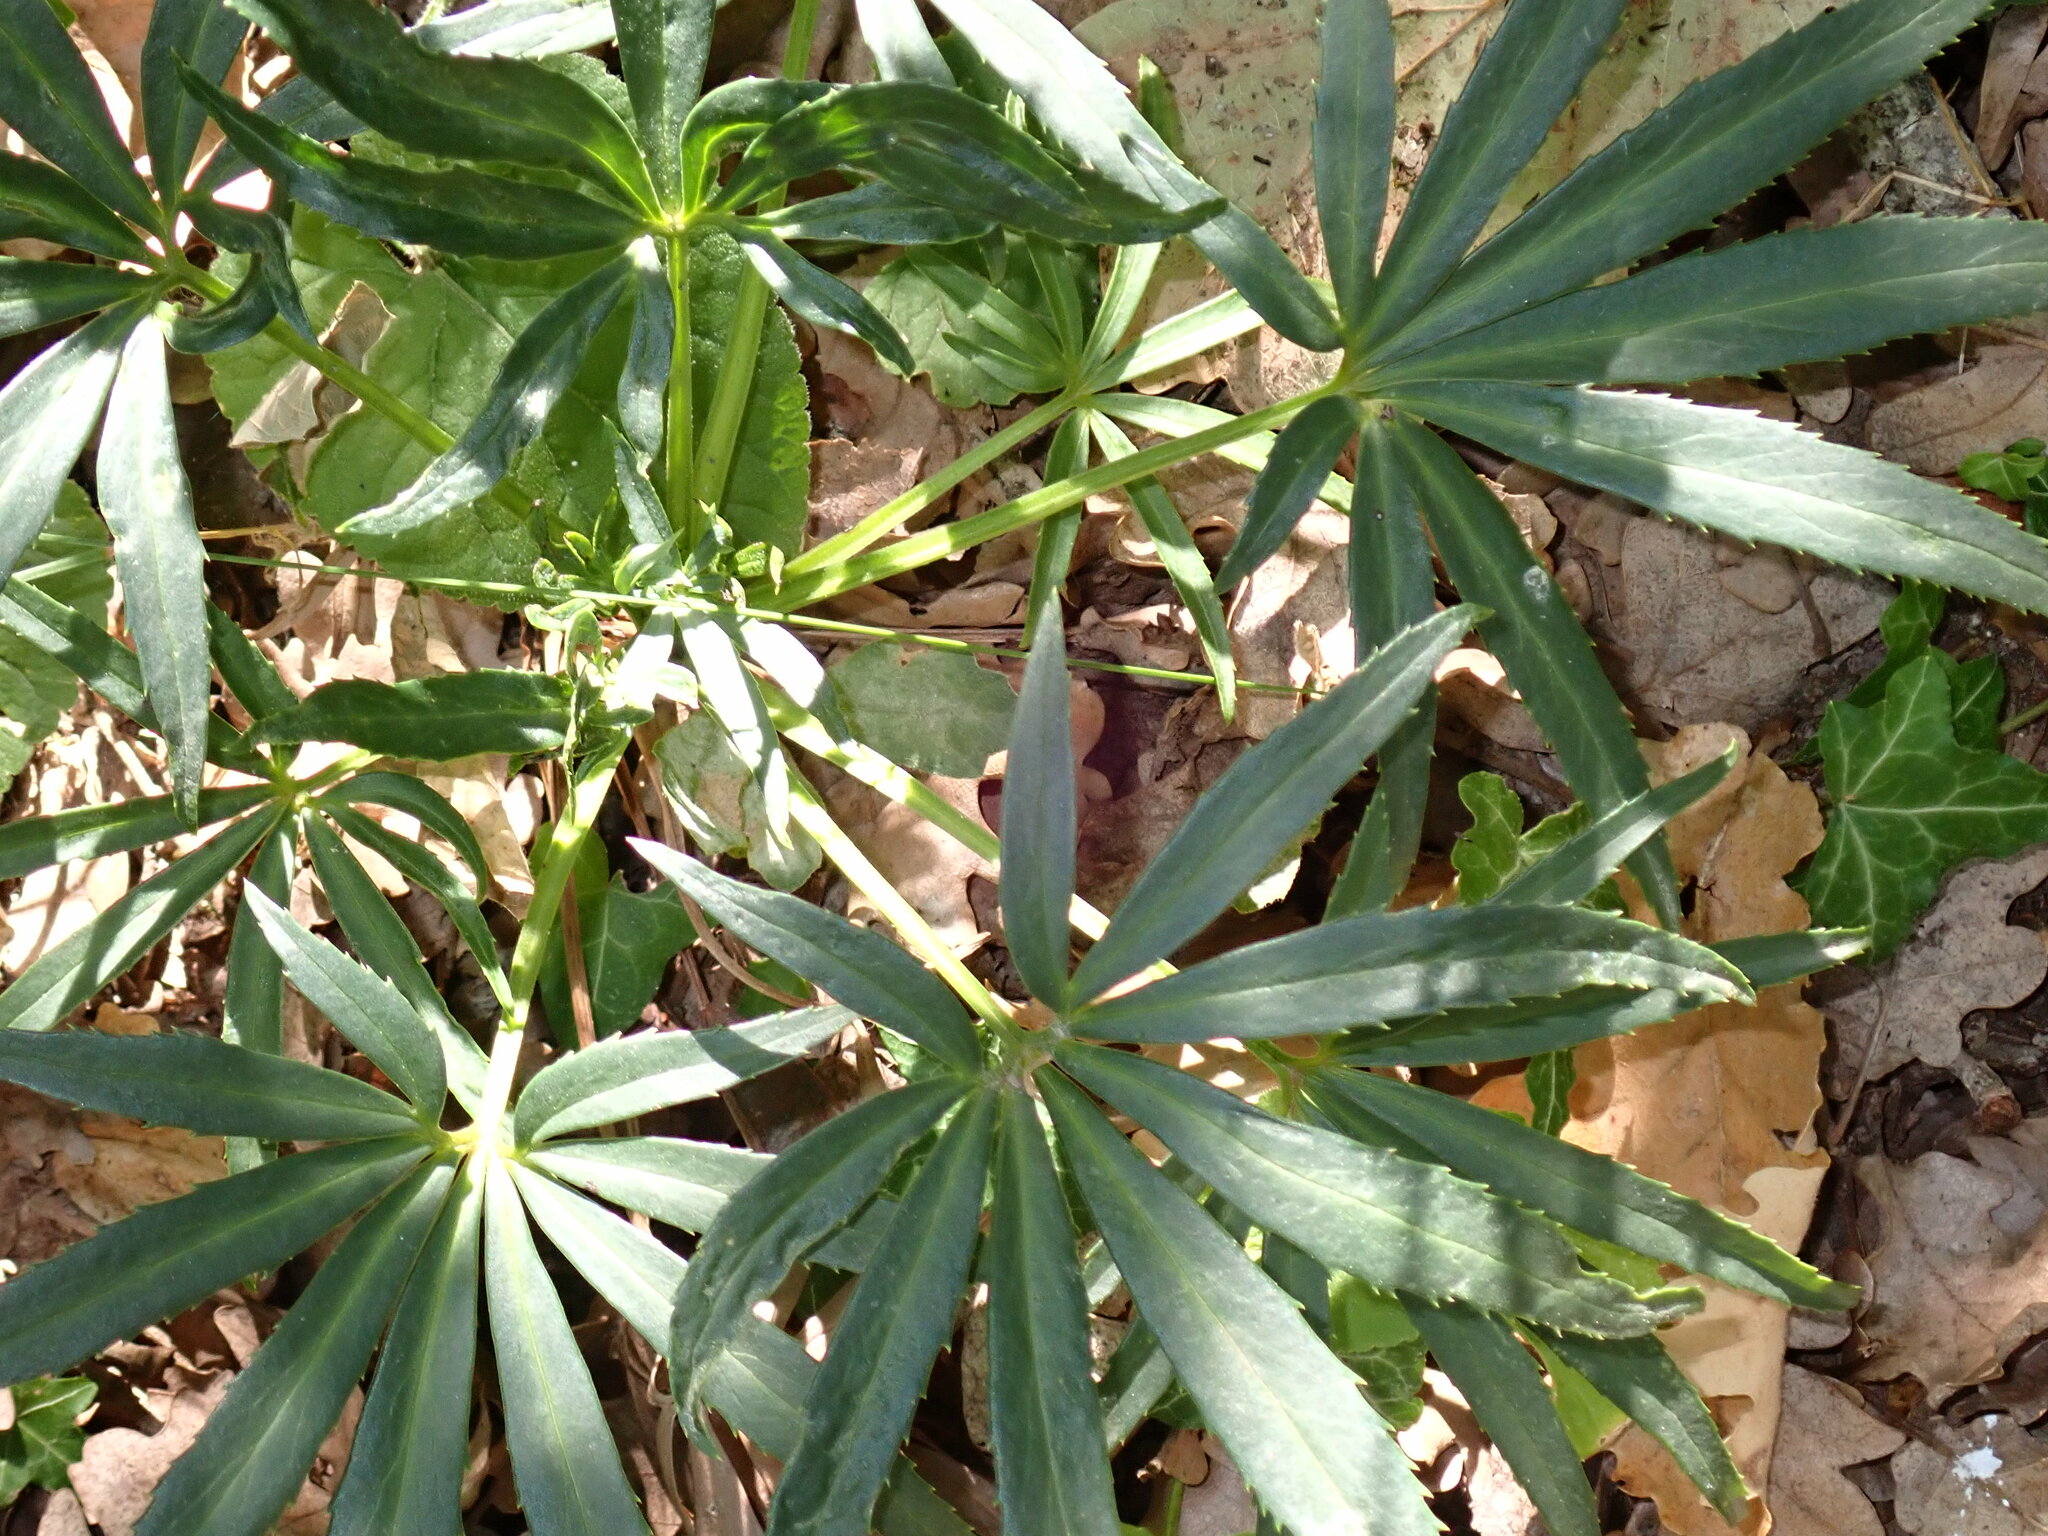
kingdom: Plantae
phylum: Tracheophyta
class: Magnoliopsida
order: Ranunculales
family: Ranunculaceae
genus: Helleborus
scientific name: Helleborus foetidus
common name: Stinking hellebore
